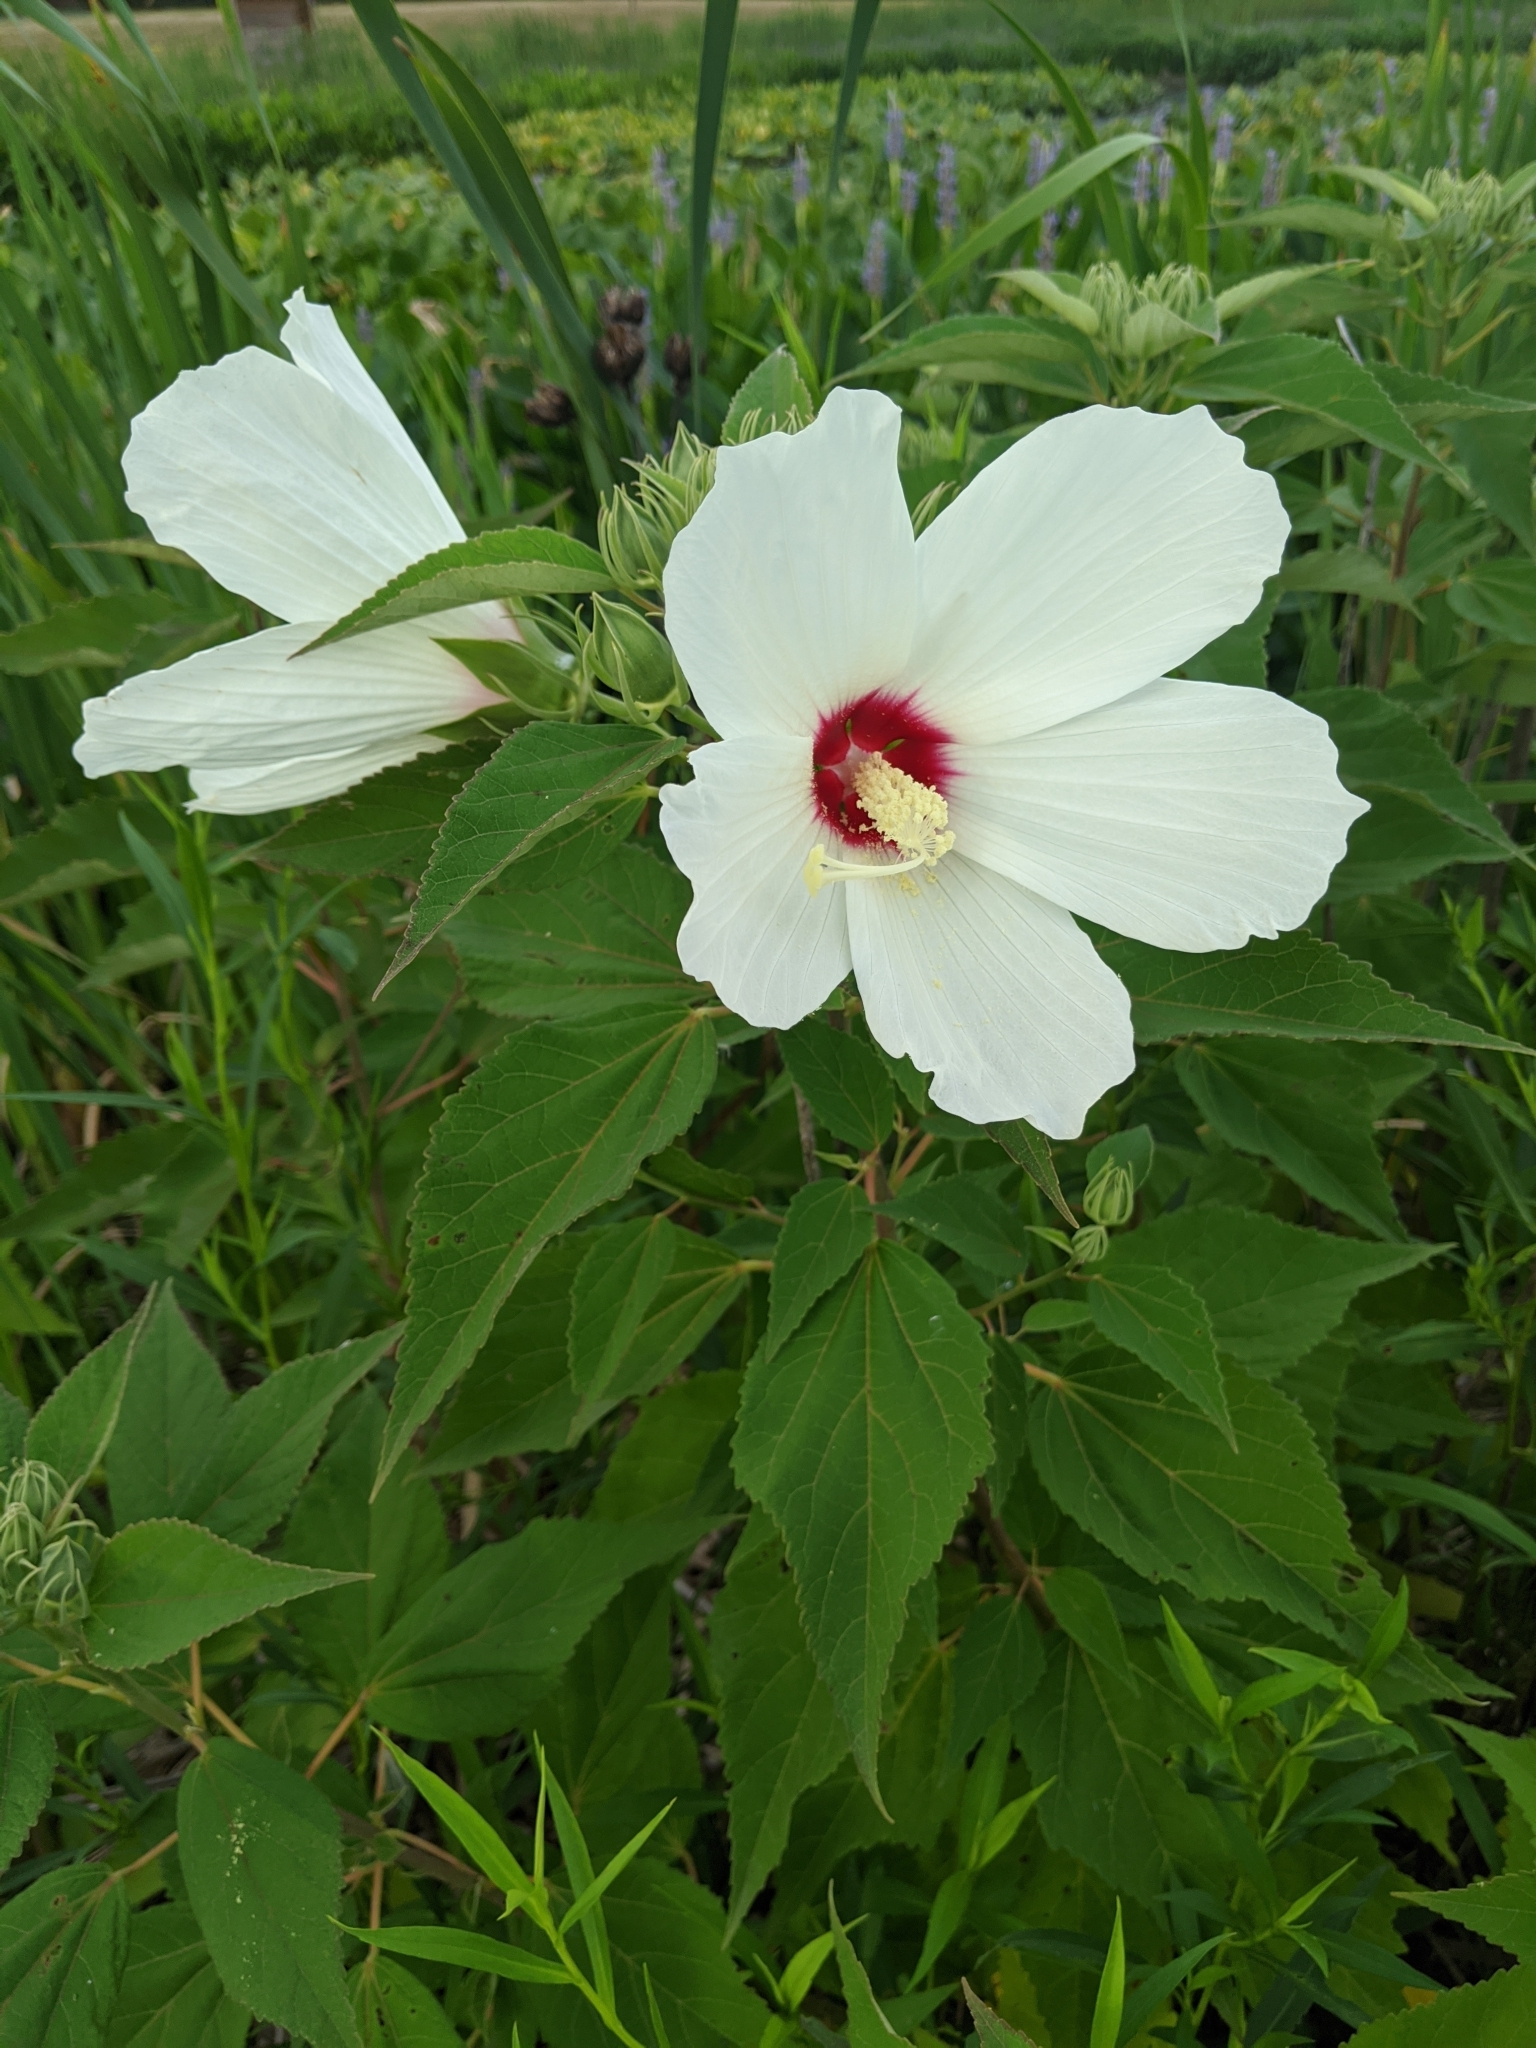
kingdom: Plantae
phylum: Tracheophyta
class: Magnoliopsida
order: Malvales
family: Malvaceae
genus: Hibiscus
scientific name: Hibiscus moscheutos
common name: Common rose-mallow
